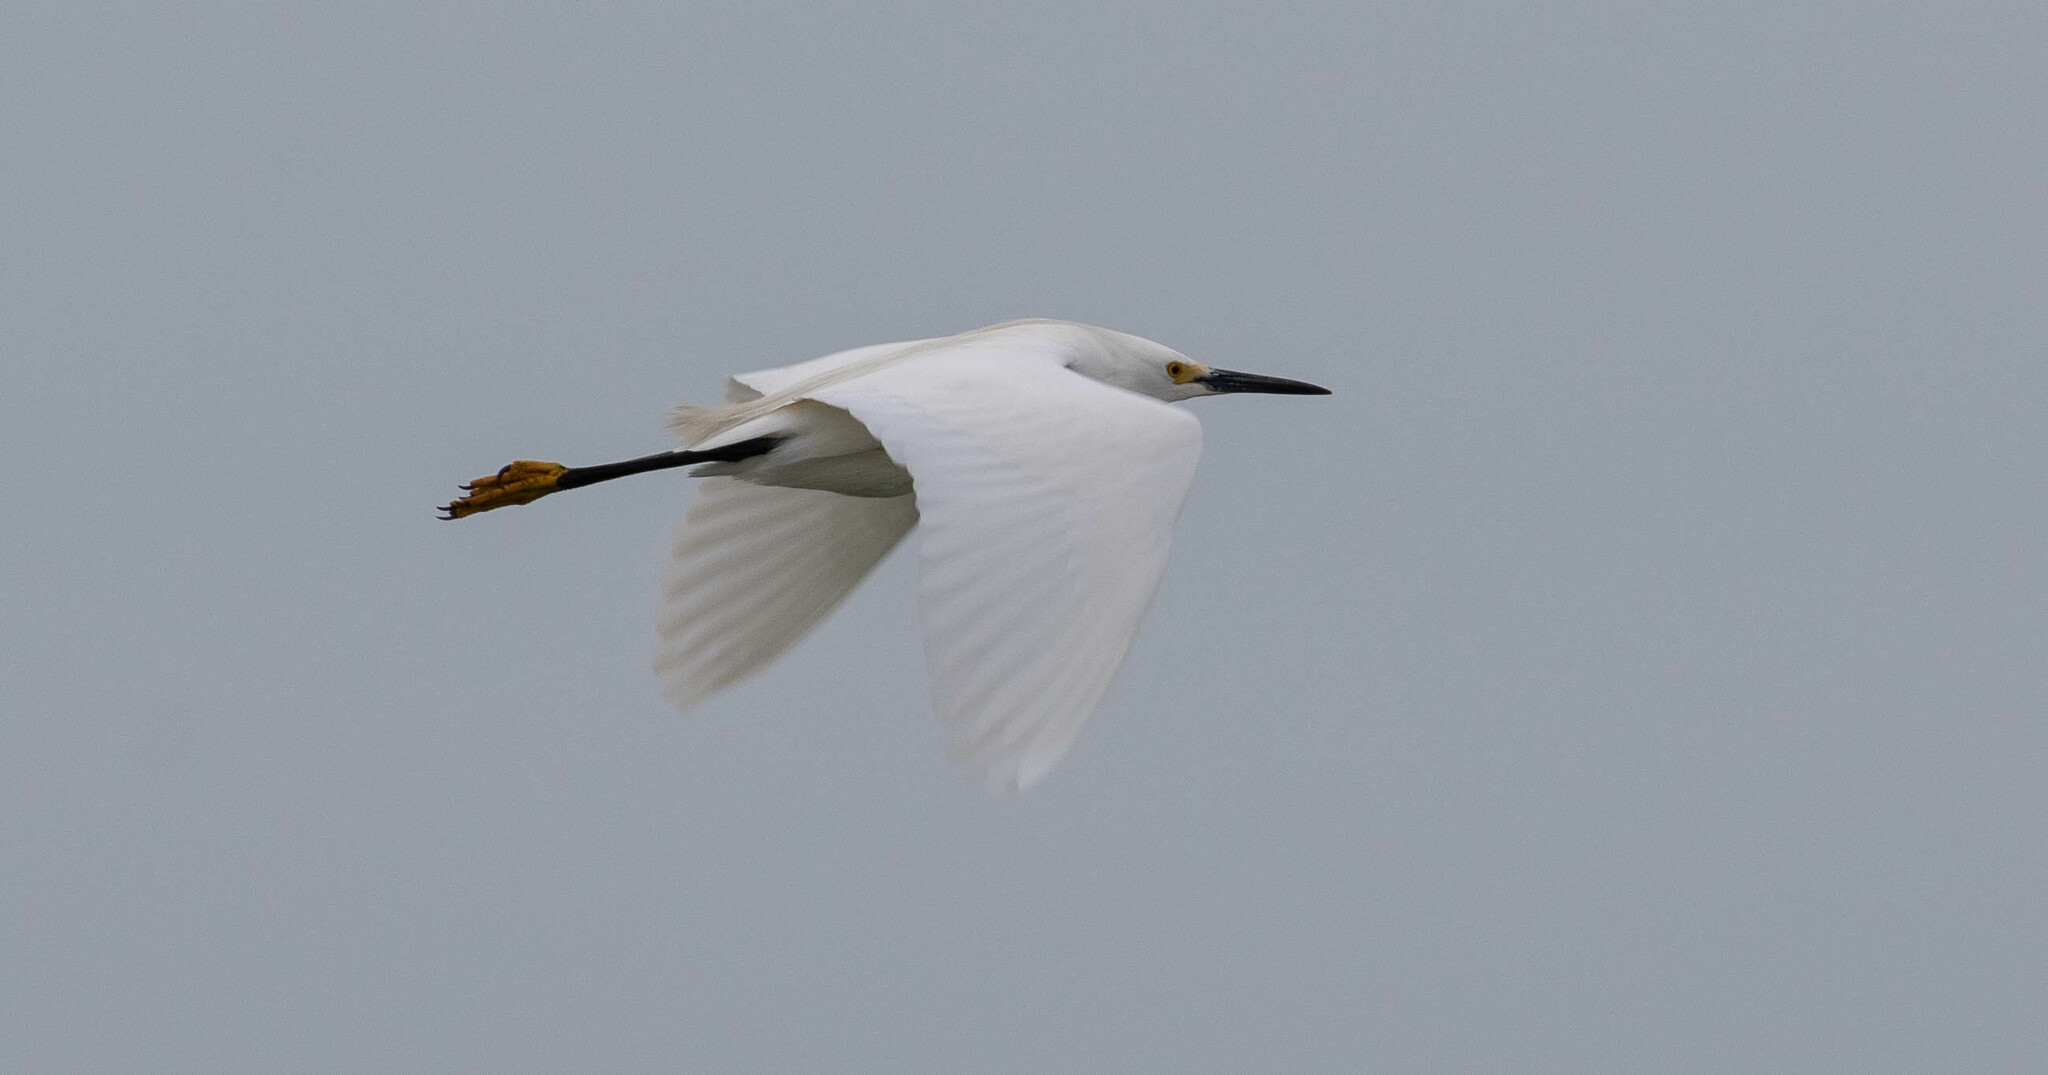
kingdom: Animalia
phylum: Chordata
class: Aves
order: Pelecaniformes
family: Ardeidae
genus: Egretta
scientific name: Egretta thula
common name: Snowy egret
